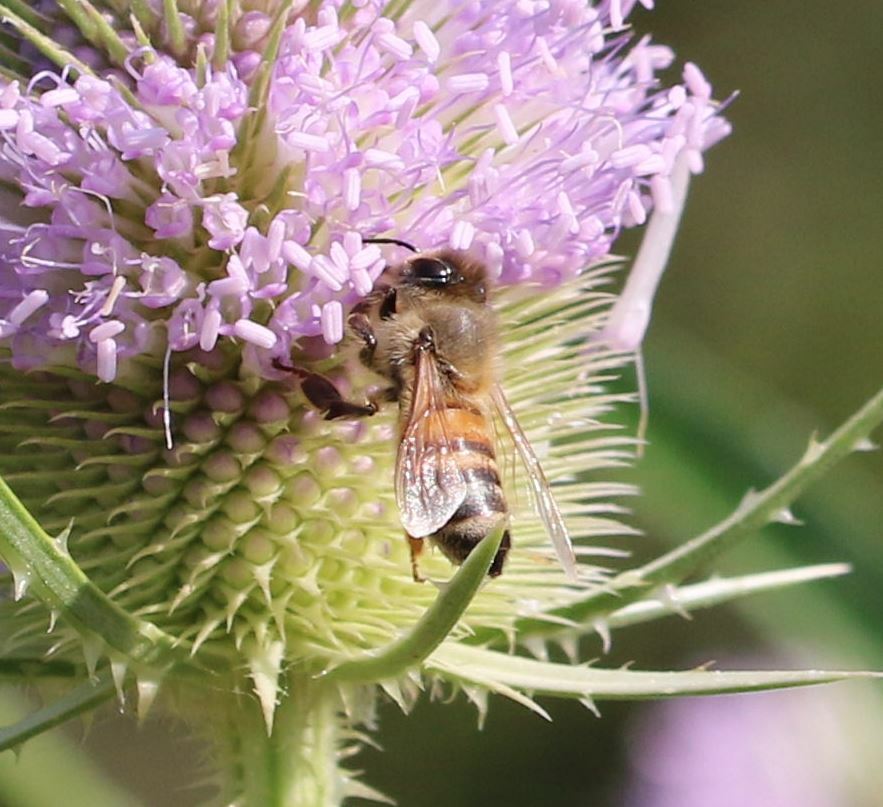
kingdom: Animalia
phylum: Arthropoda
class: Insecta
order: Hymenoptera
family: Apidae
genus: Apis
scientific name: Apis mellifera
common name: Honey bee
